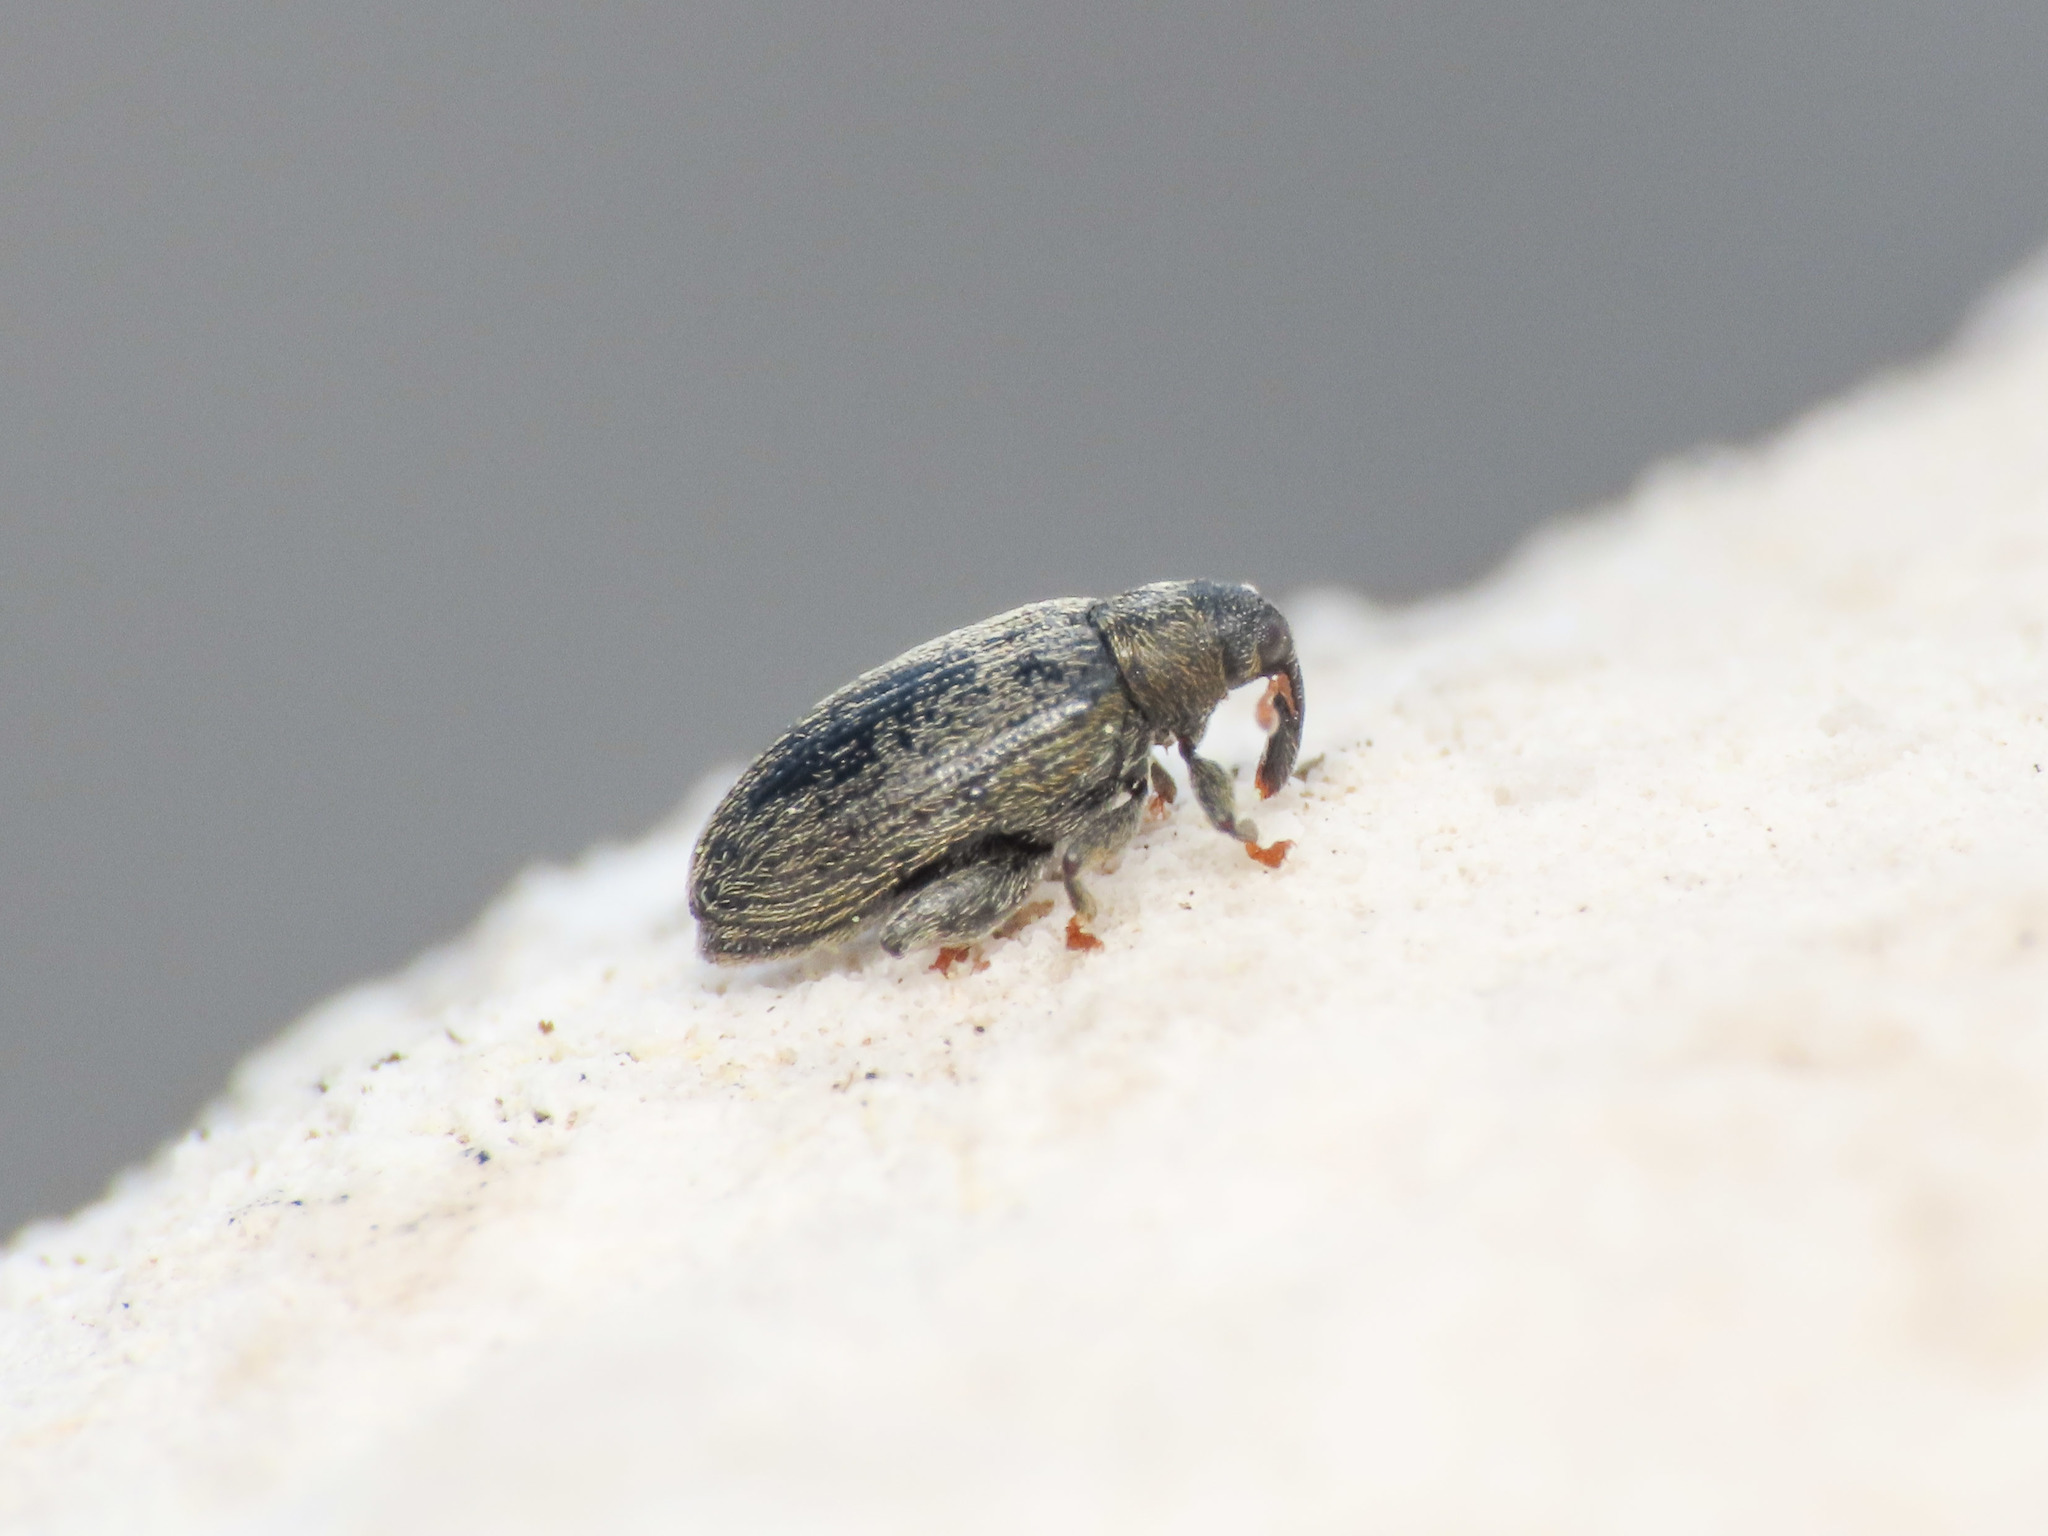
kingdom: Animalia
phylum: Arthropoda
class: Insecta
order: Coleoptera
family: Curculionidae
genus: Orchestes
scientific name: Orchestes fagi
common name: Beech leaf miner
